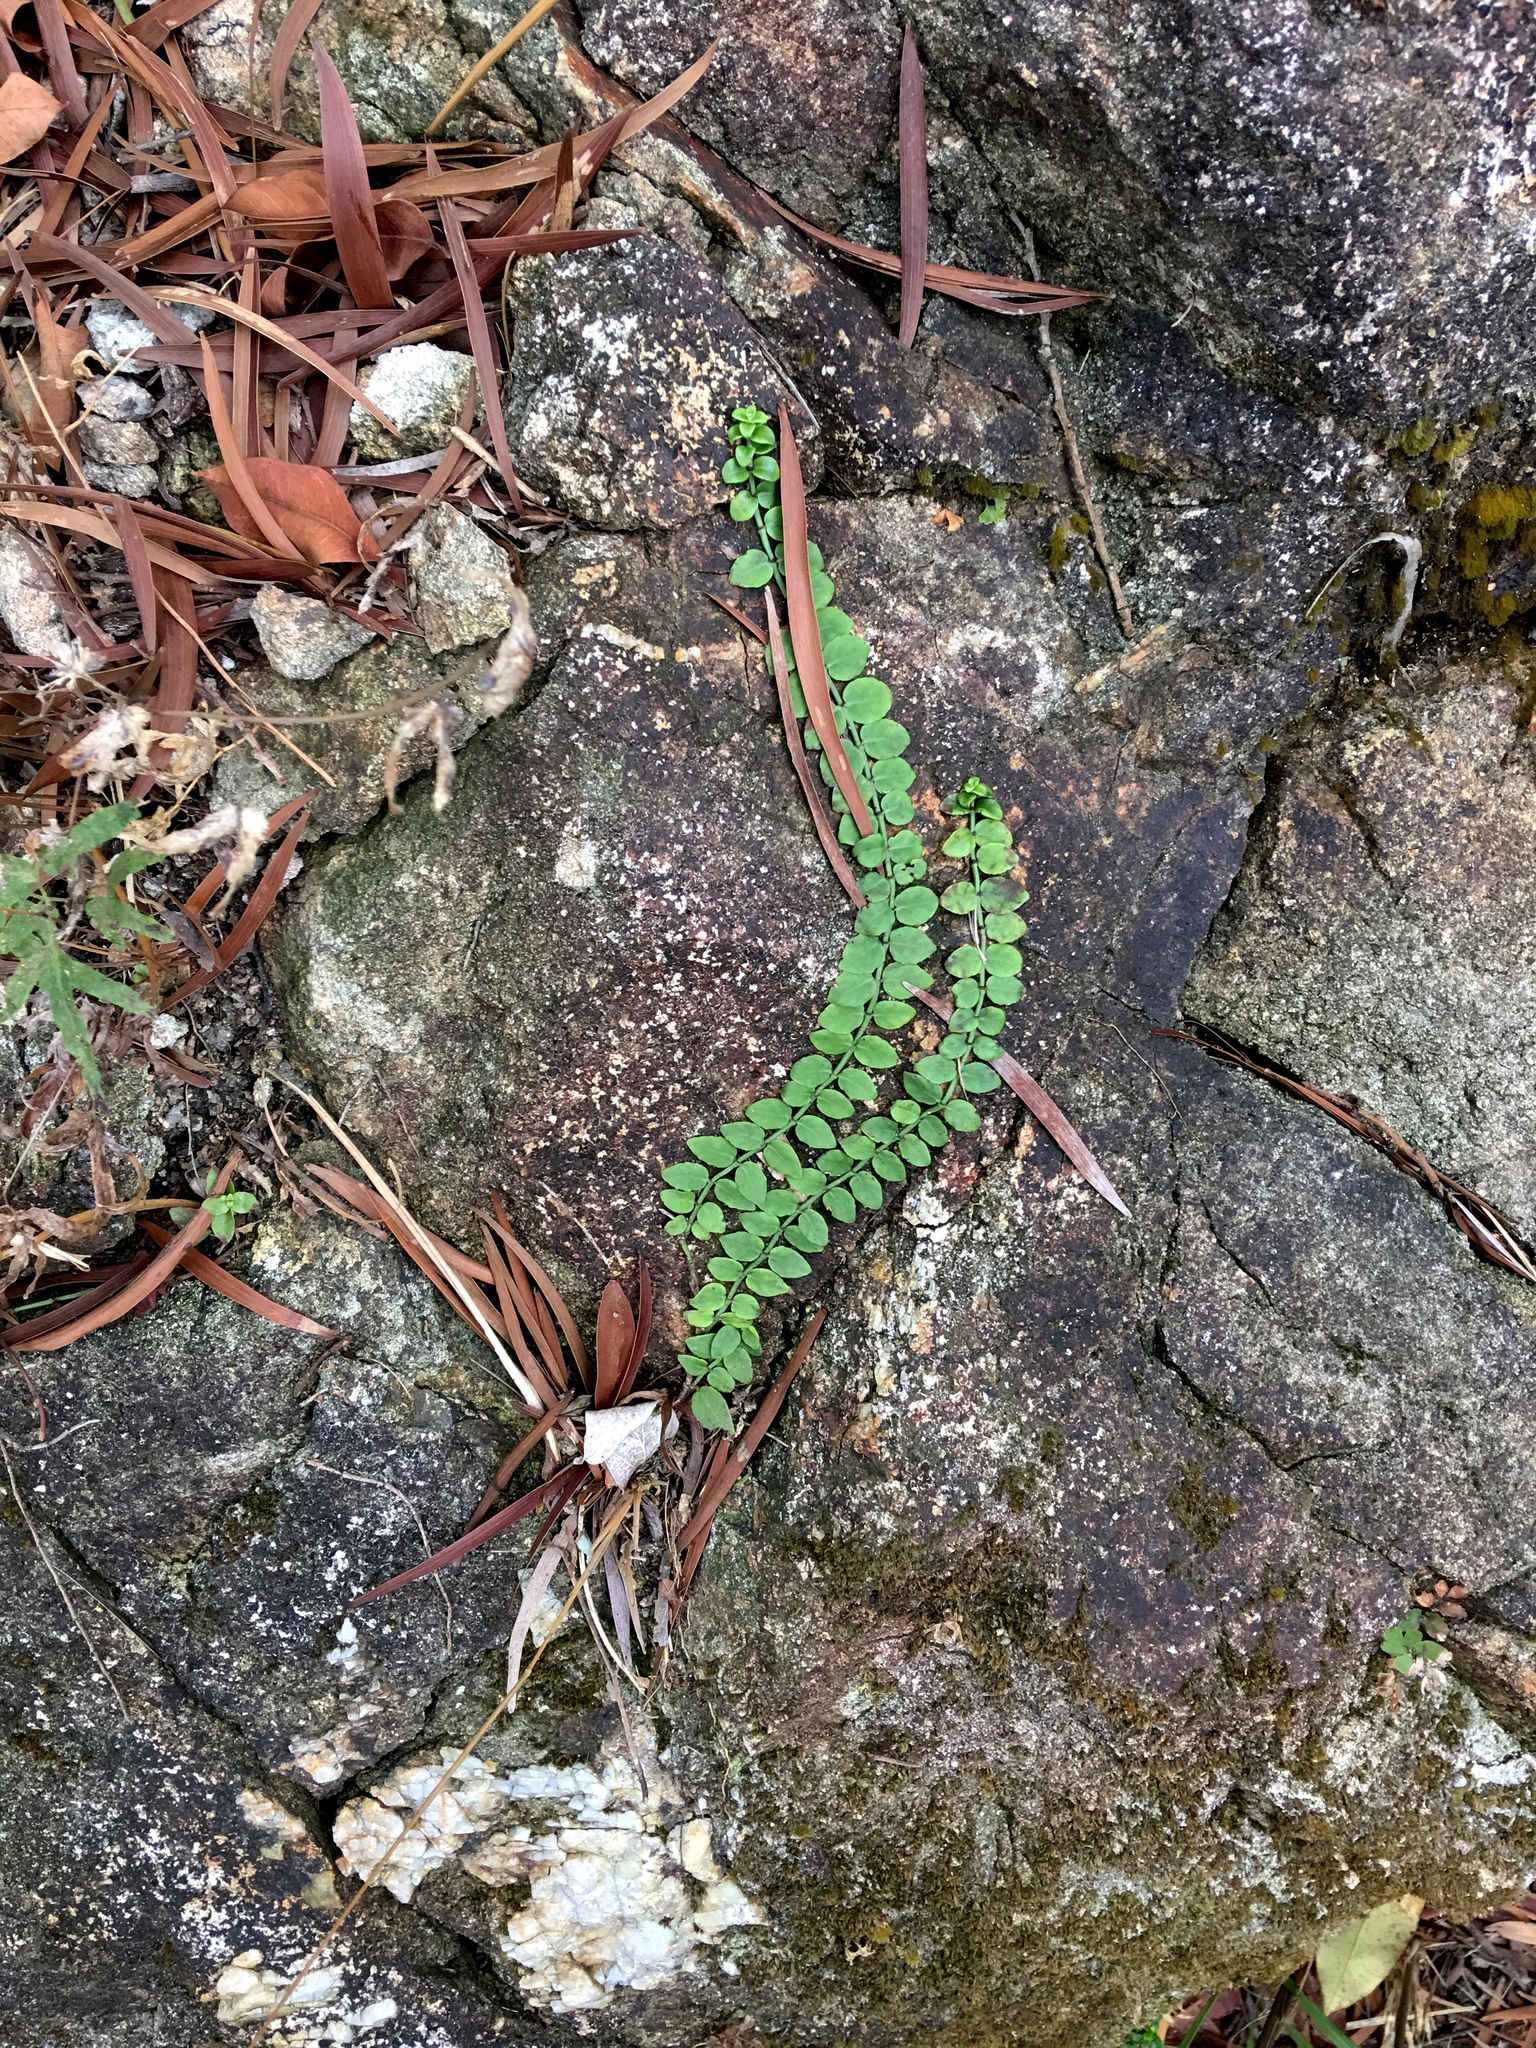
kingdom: Plantae
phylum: Tracheophyta
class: Magnoliopsida
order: Gentianales
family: Rubiaceae
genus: Psychotria
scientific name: Psychotria serpens
